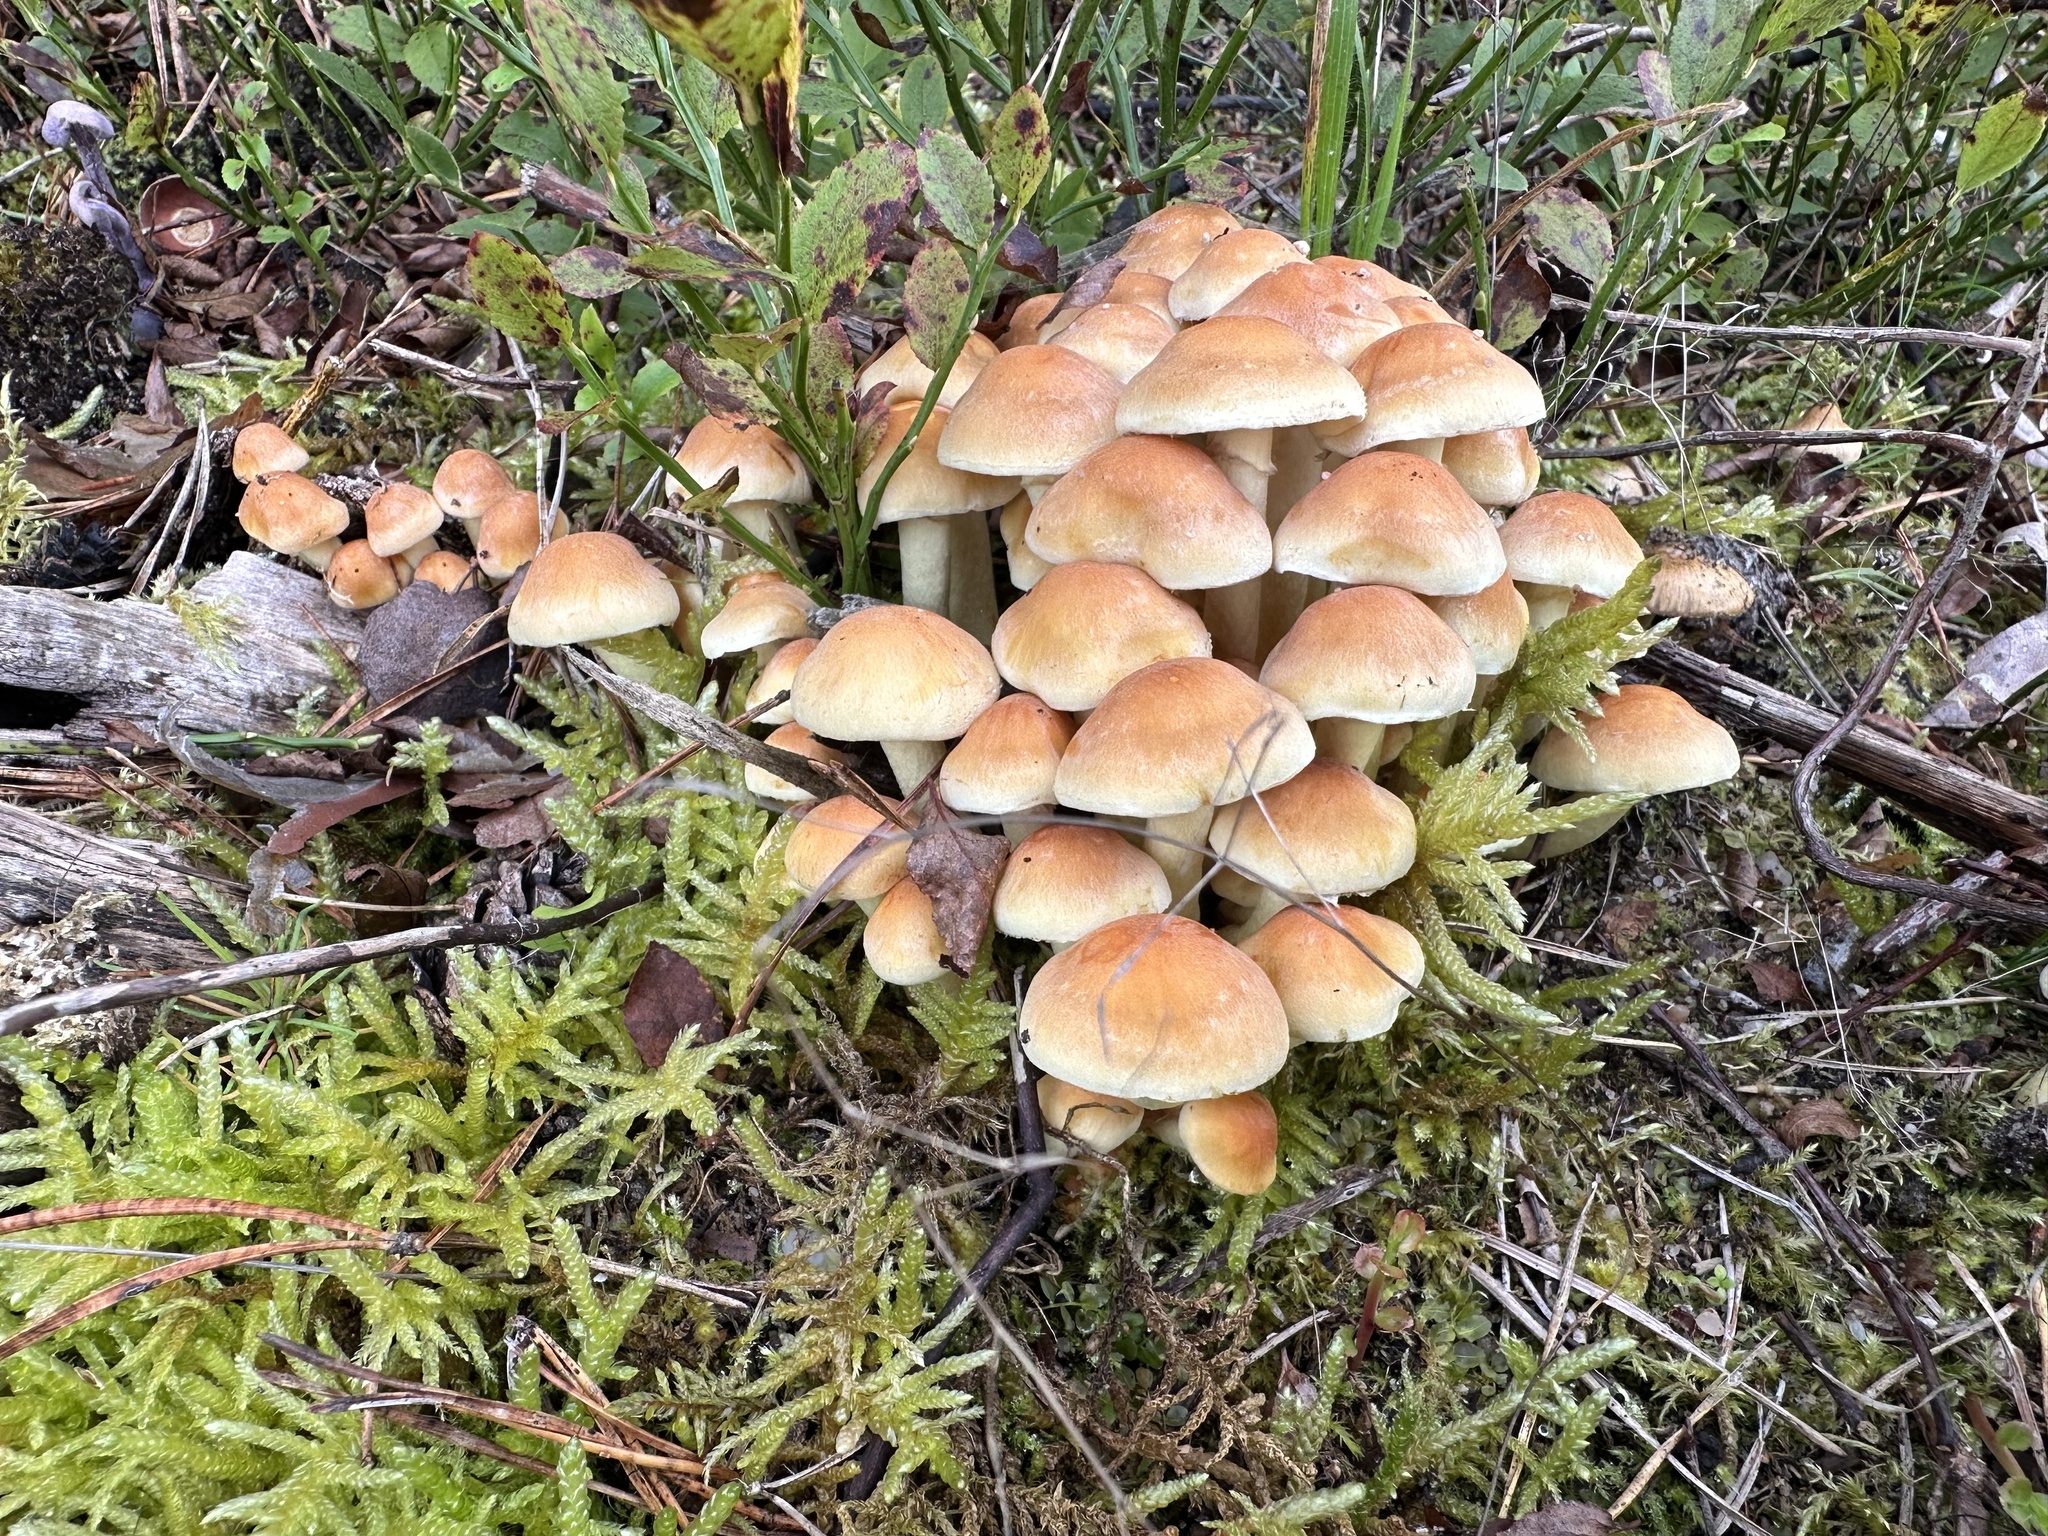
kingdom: Fungi
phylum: Basidiomycota
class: Agaricomycetes
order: Agaricales
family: Strophariaceae
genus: Hypholoma
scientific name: Hypholoma fasciculare
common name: Sulphur tuft
